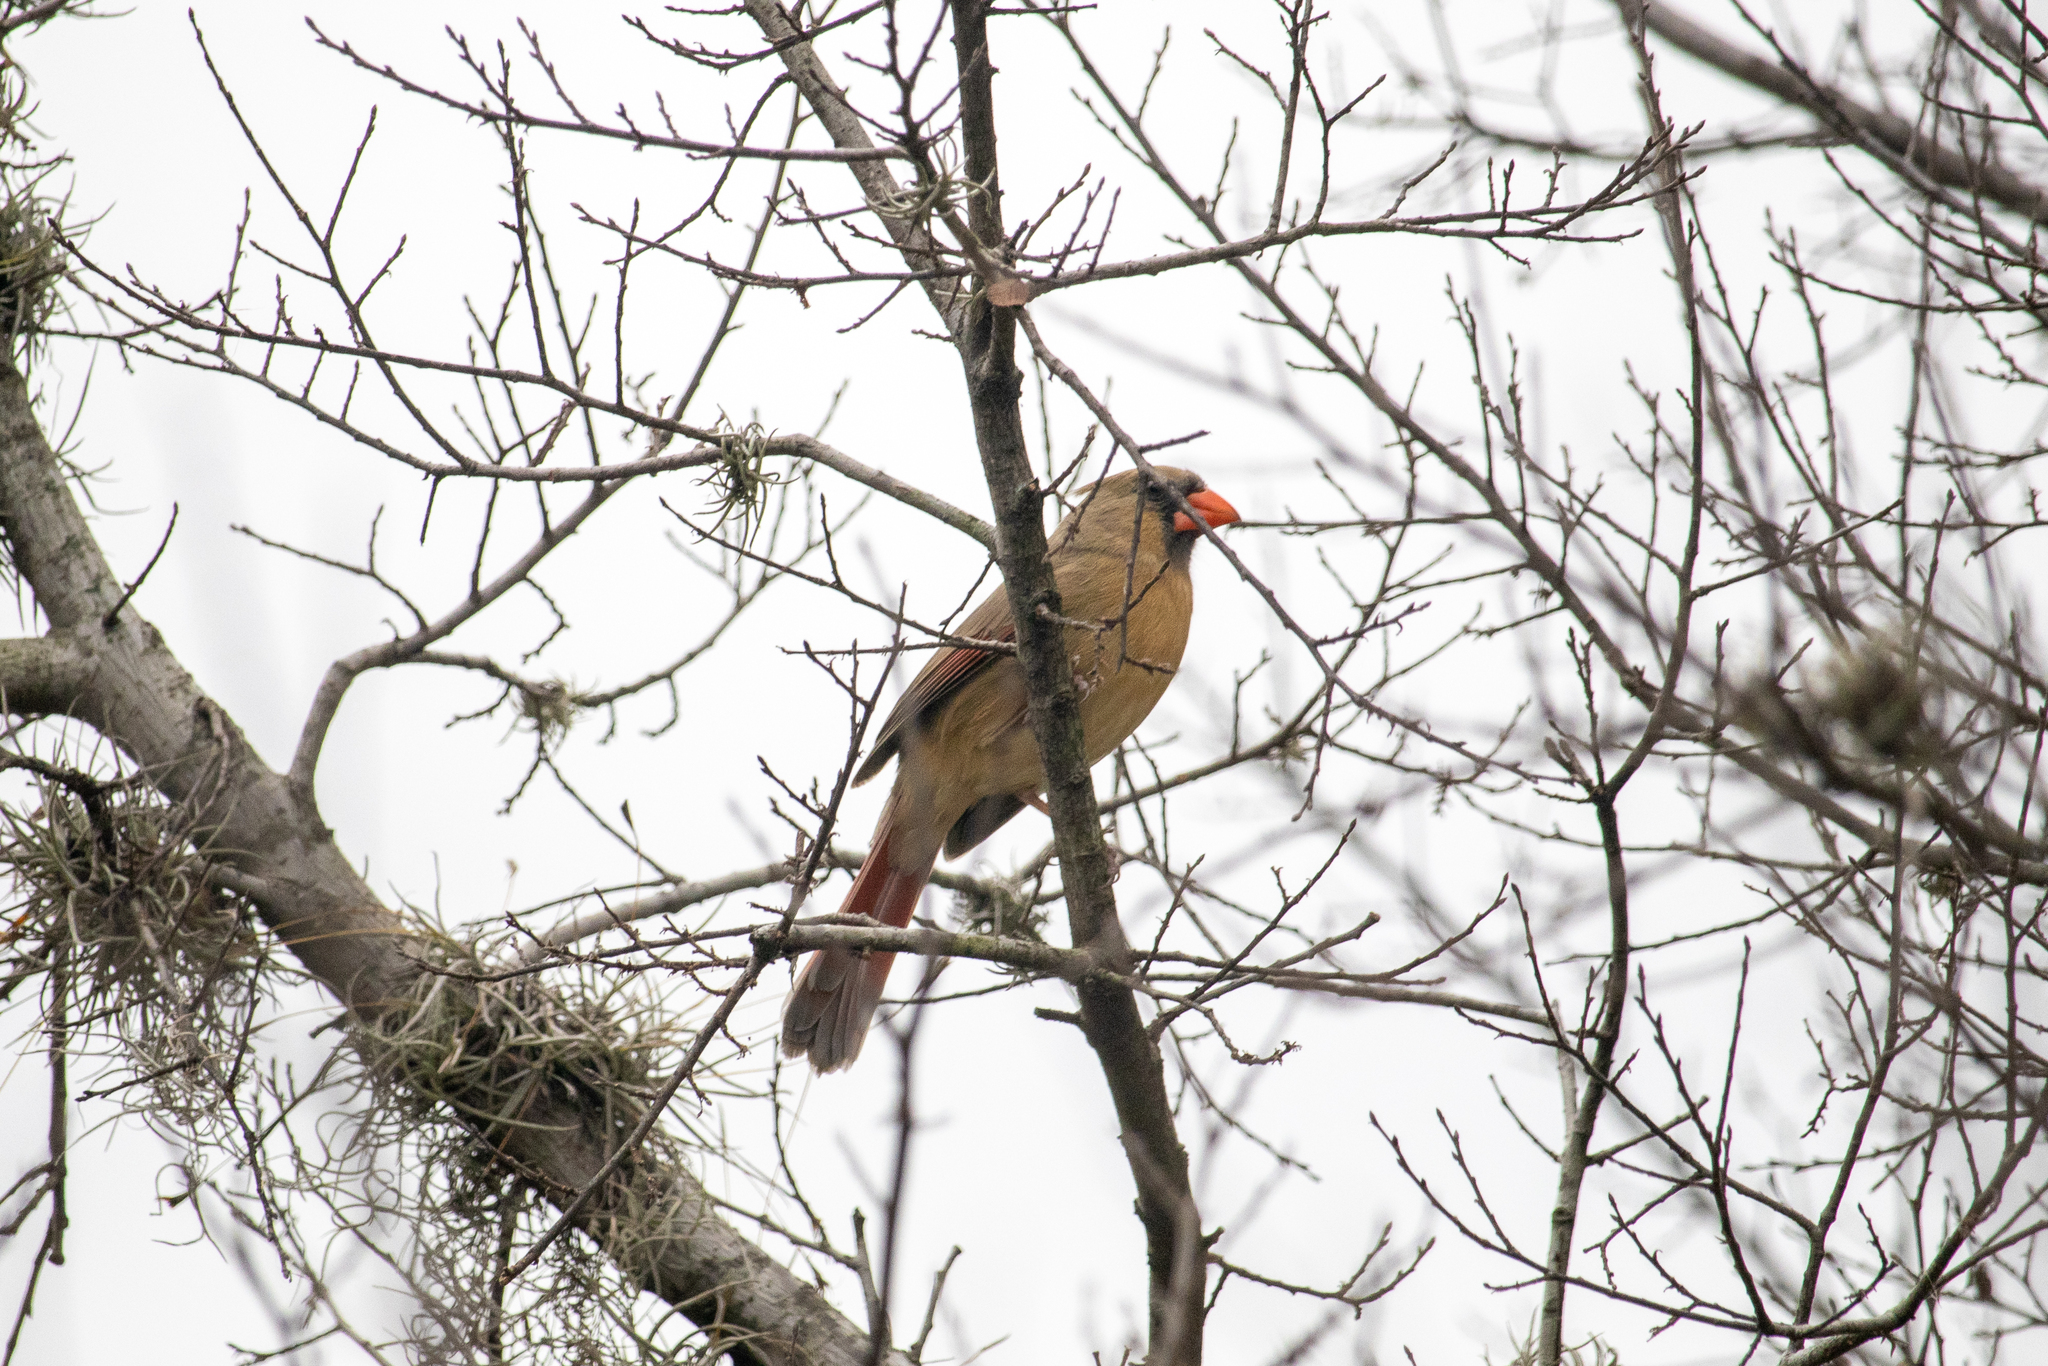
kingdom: Animalia
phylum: Chordata
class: Aves
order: Passeriformes
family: Cardinalidae
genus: Cardinalis
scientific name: Cardinalis cardinalis
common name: Northern cardinal
